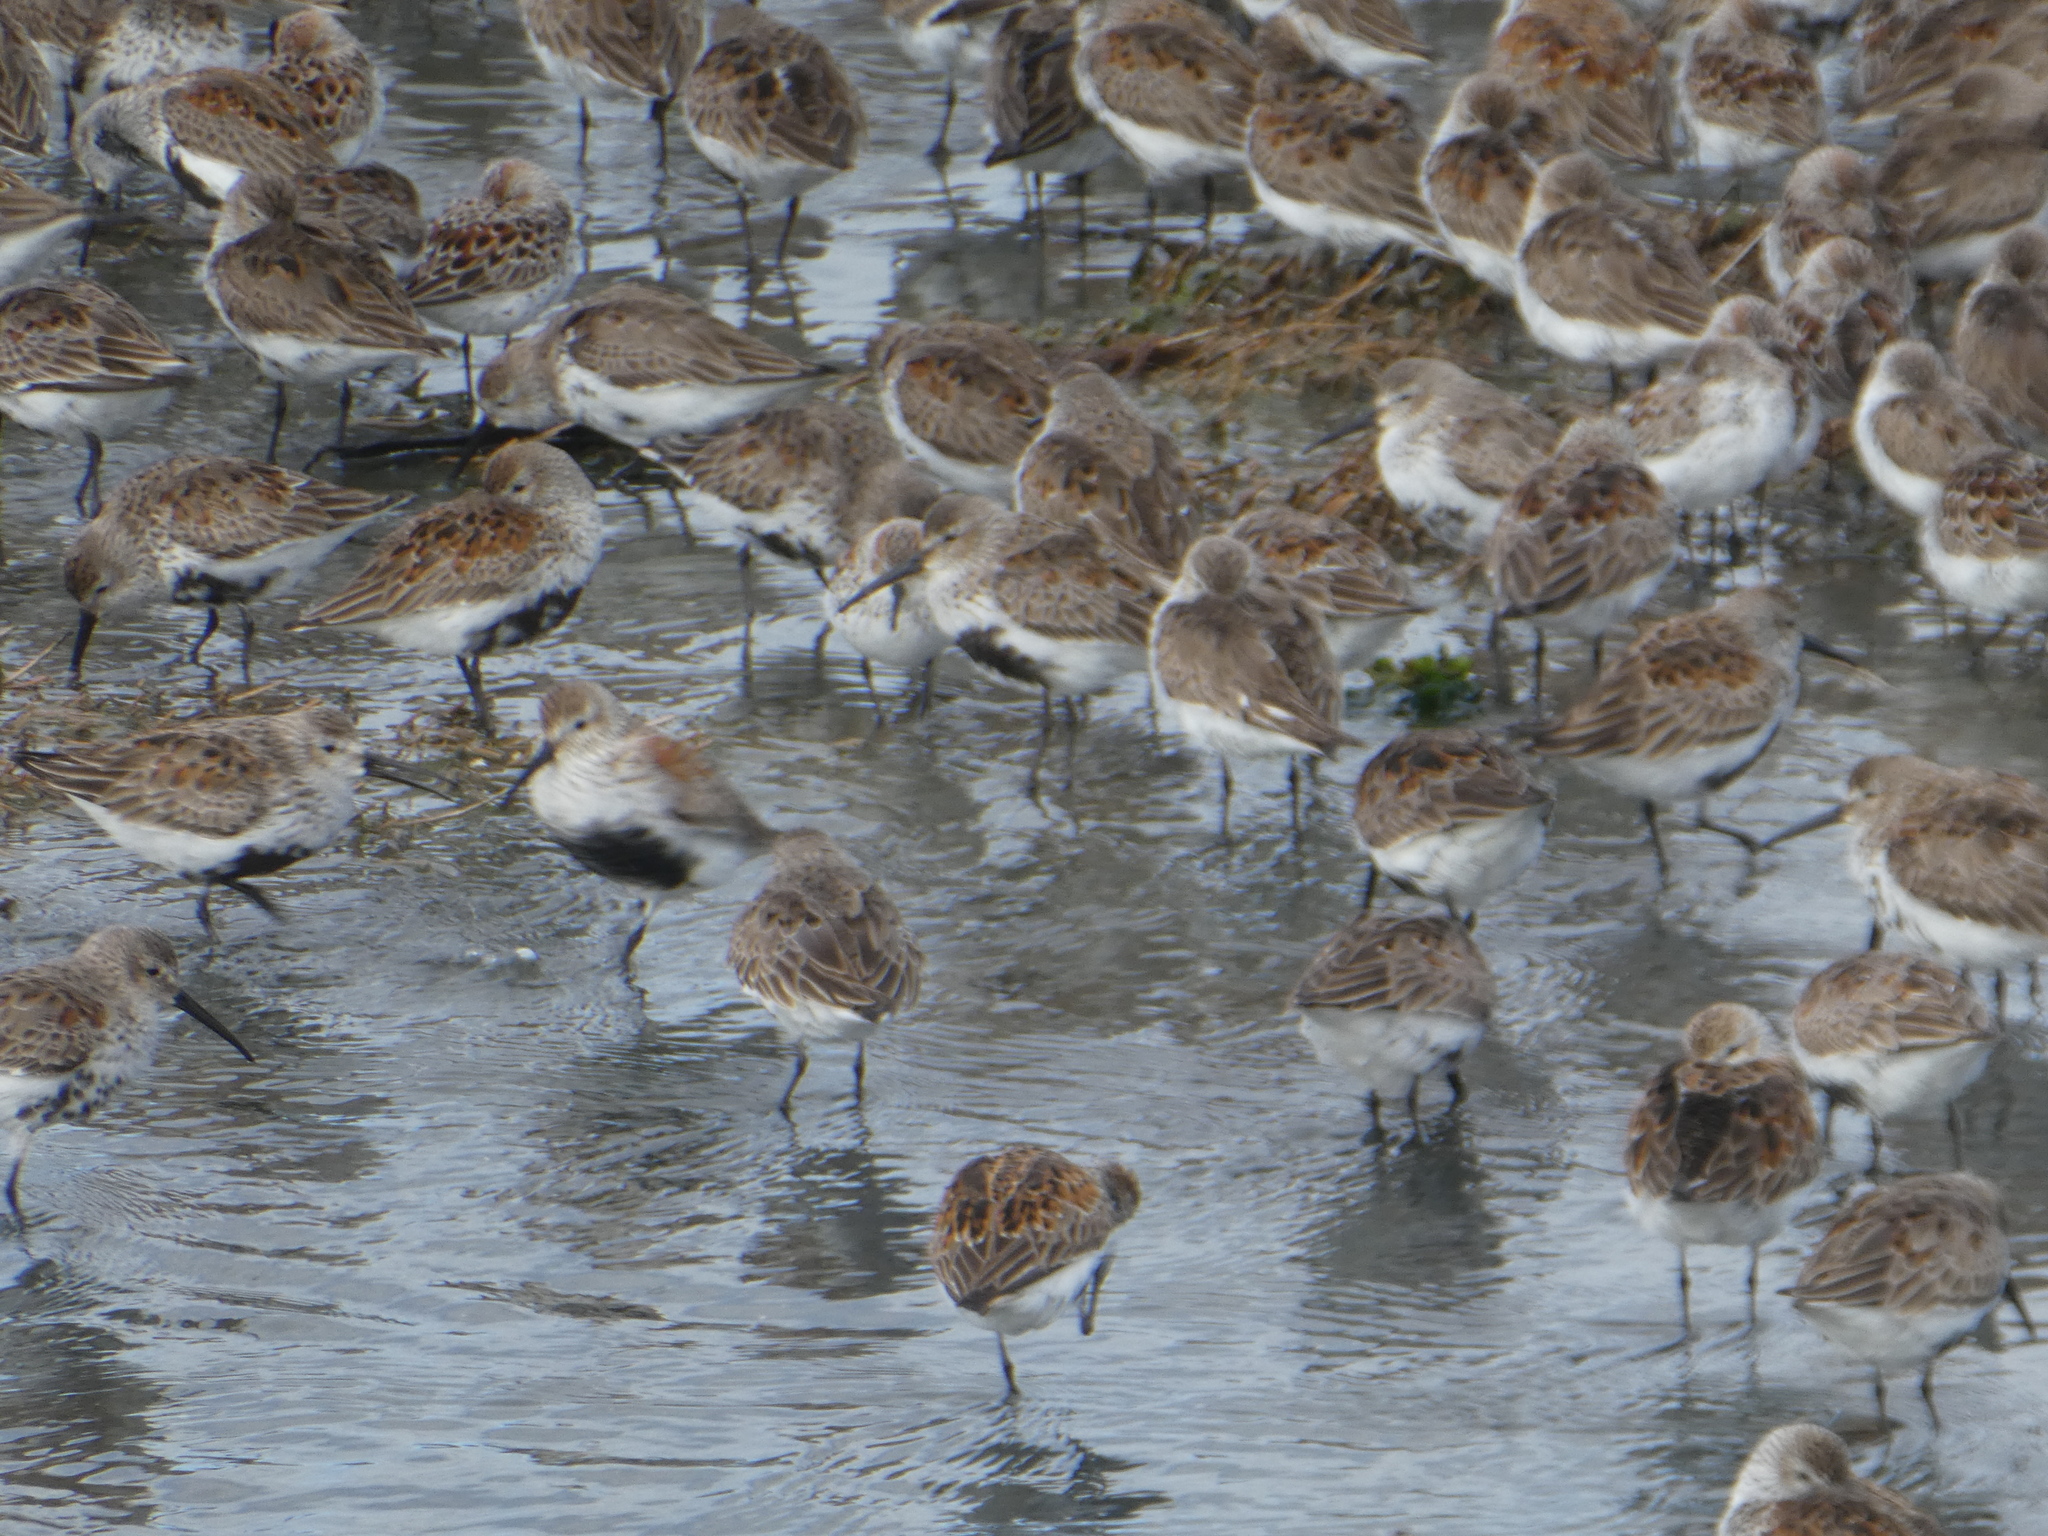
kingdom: Animalia
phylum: Chordata
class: Aves
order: Charadriiformes
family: Scolopacidae
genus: Calidris
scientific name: Calidris alpina
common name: Dunlin
